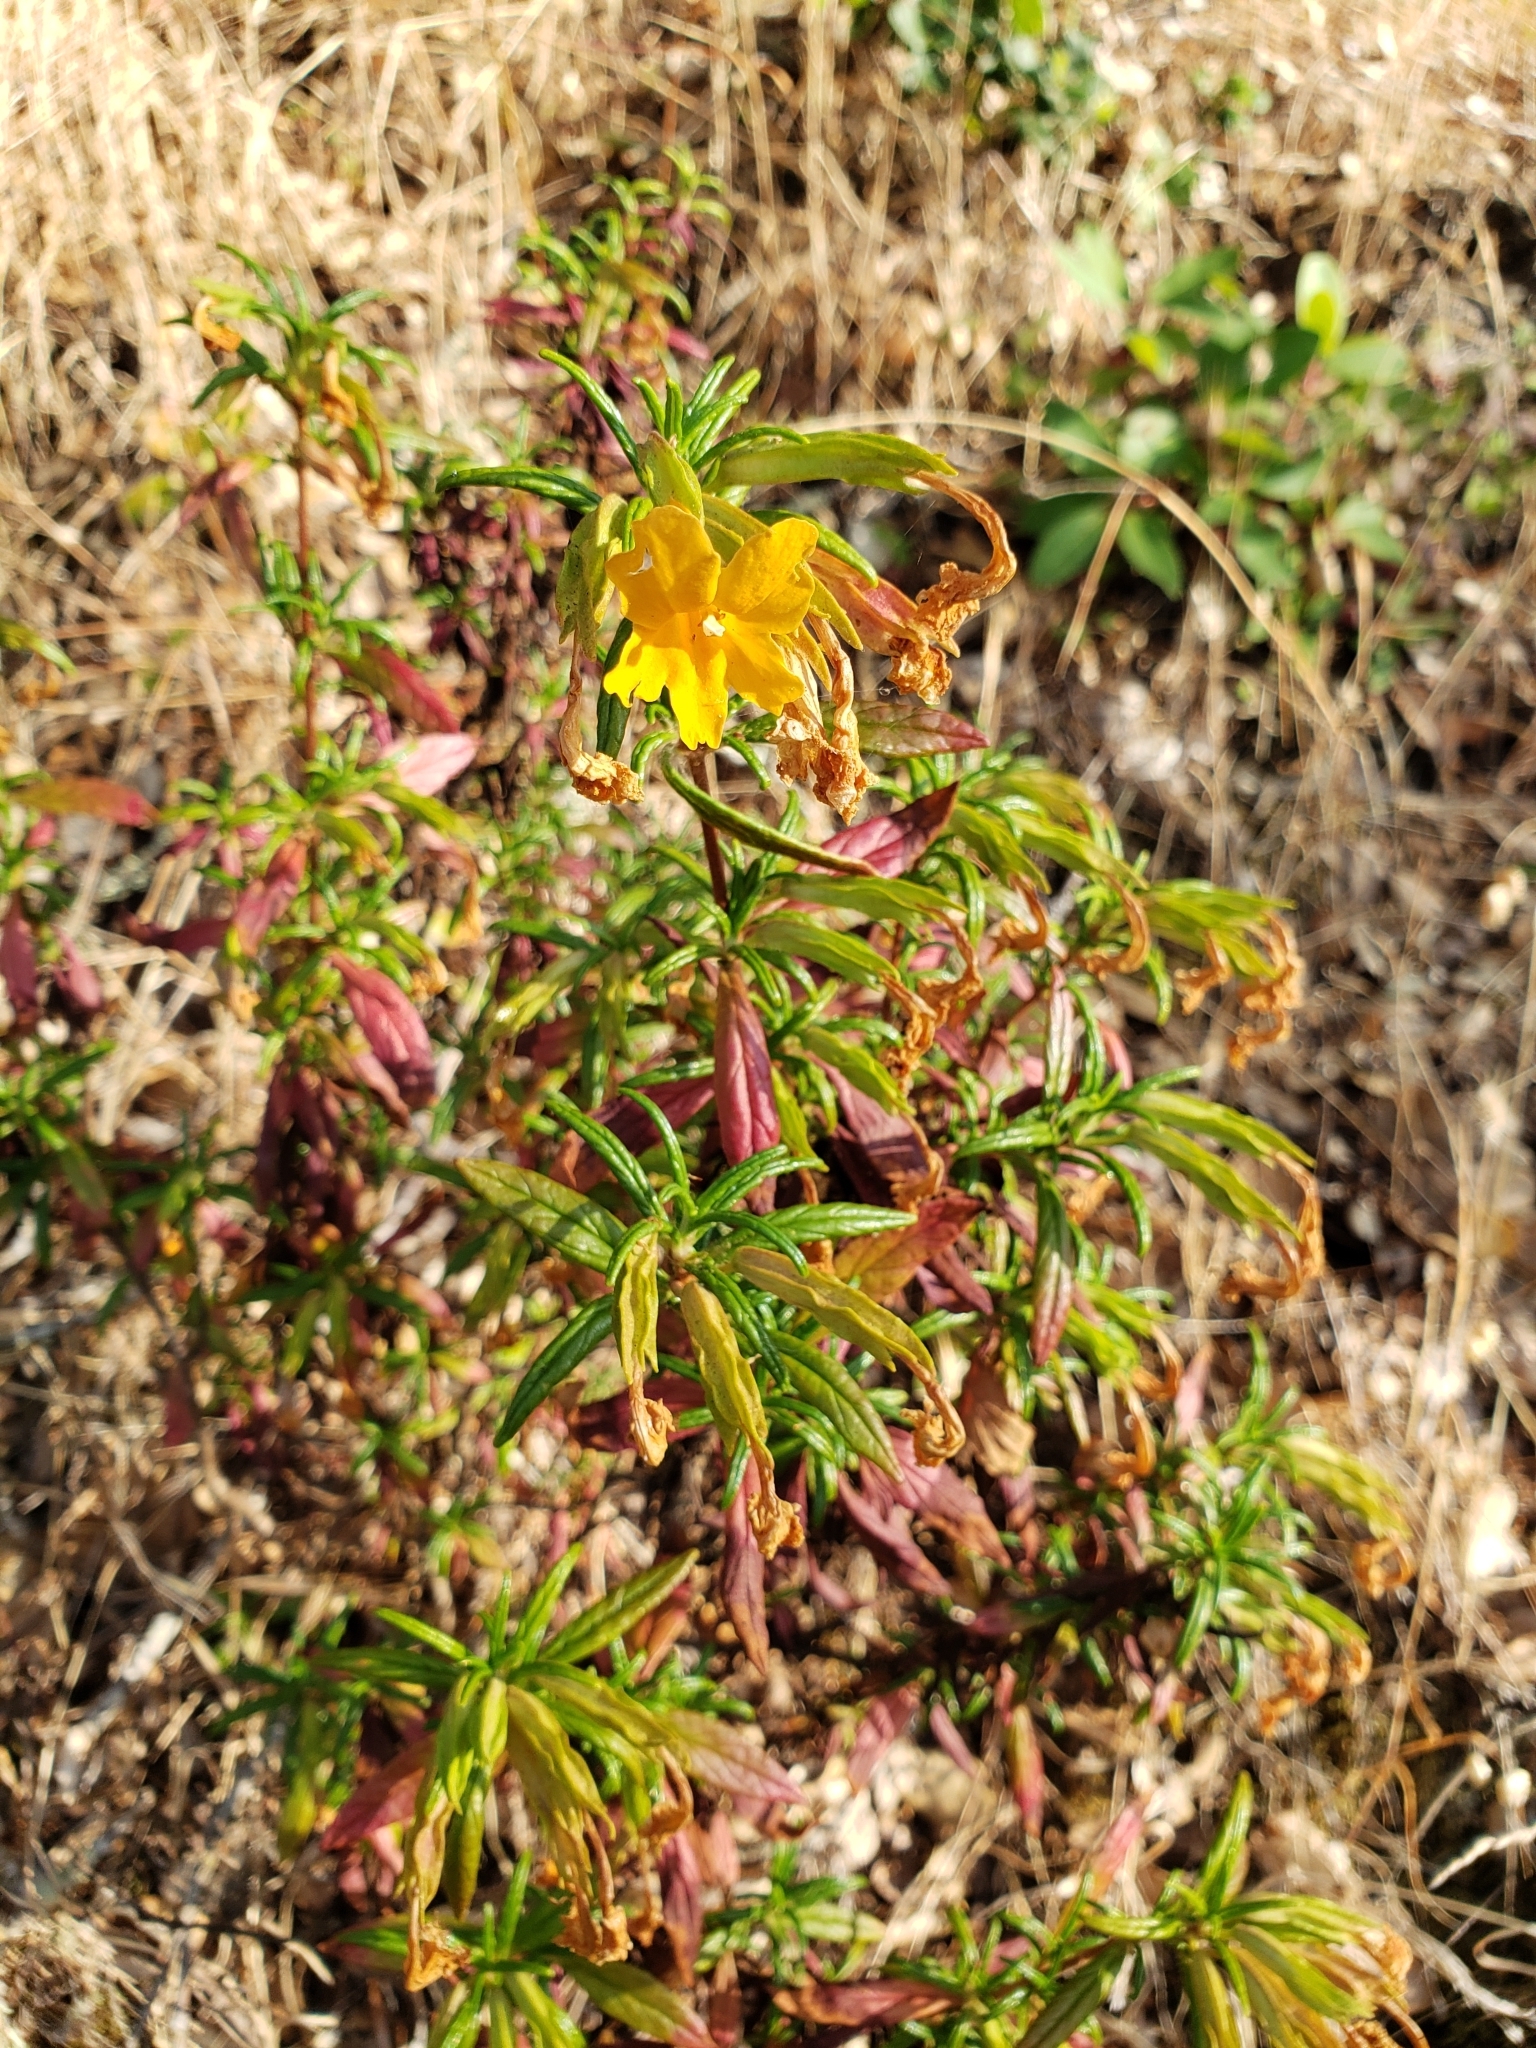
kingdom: Plantae
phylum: Tracheophyta
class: Magnoliopsida
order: Lamiales
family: Phrymaceae
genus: Diplacus
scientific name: Diplacus aurantiacus
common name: Bush monkey-flower
